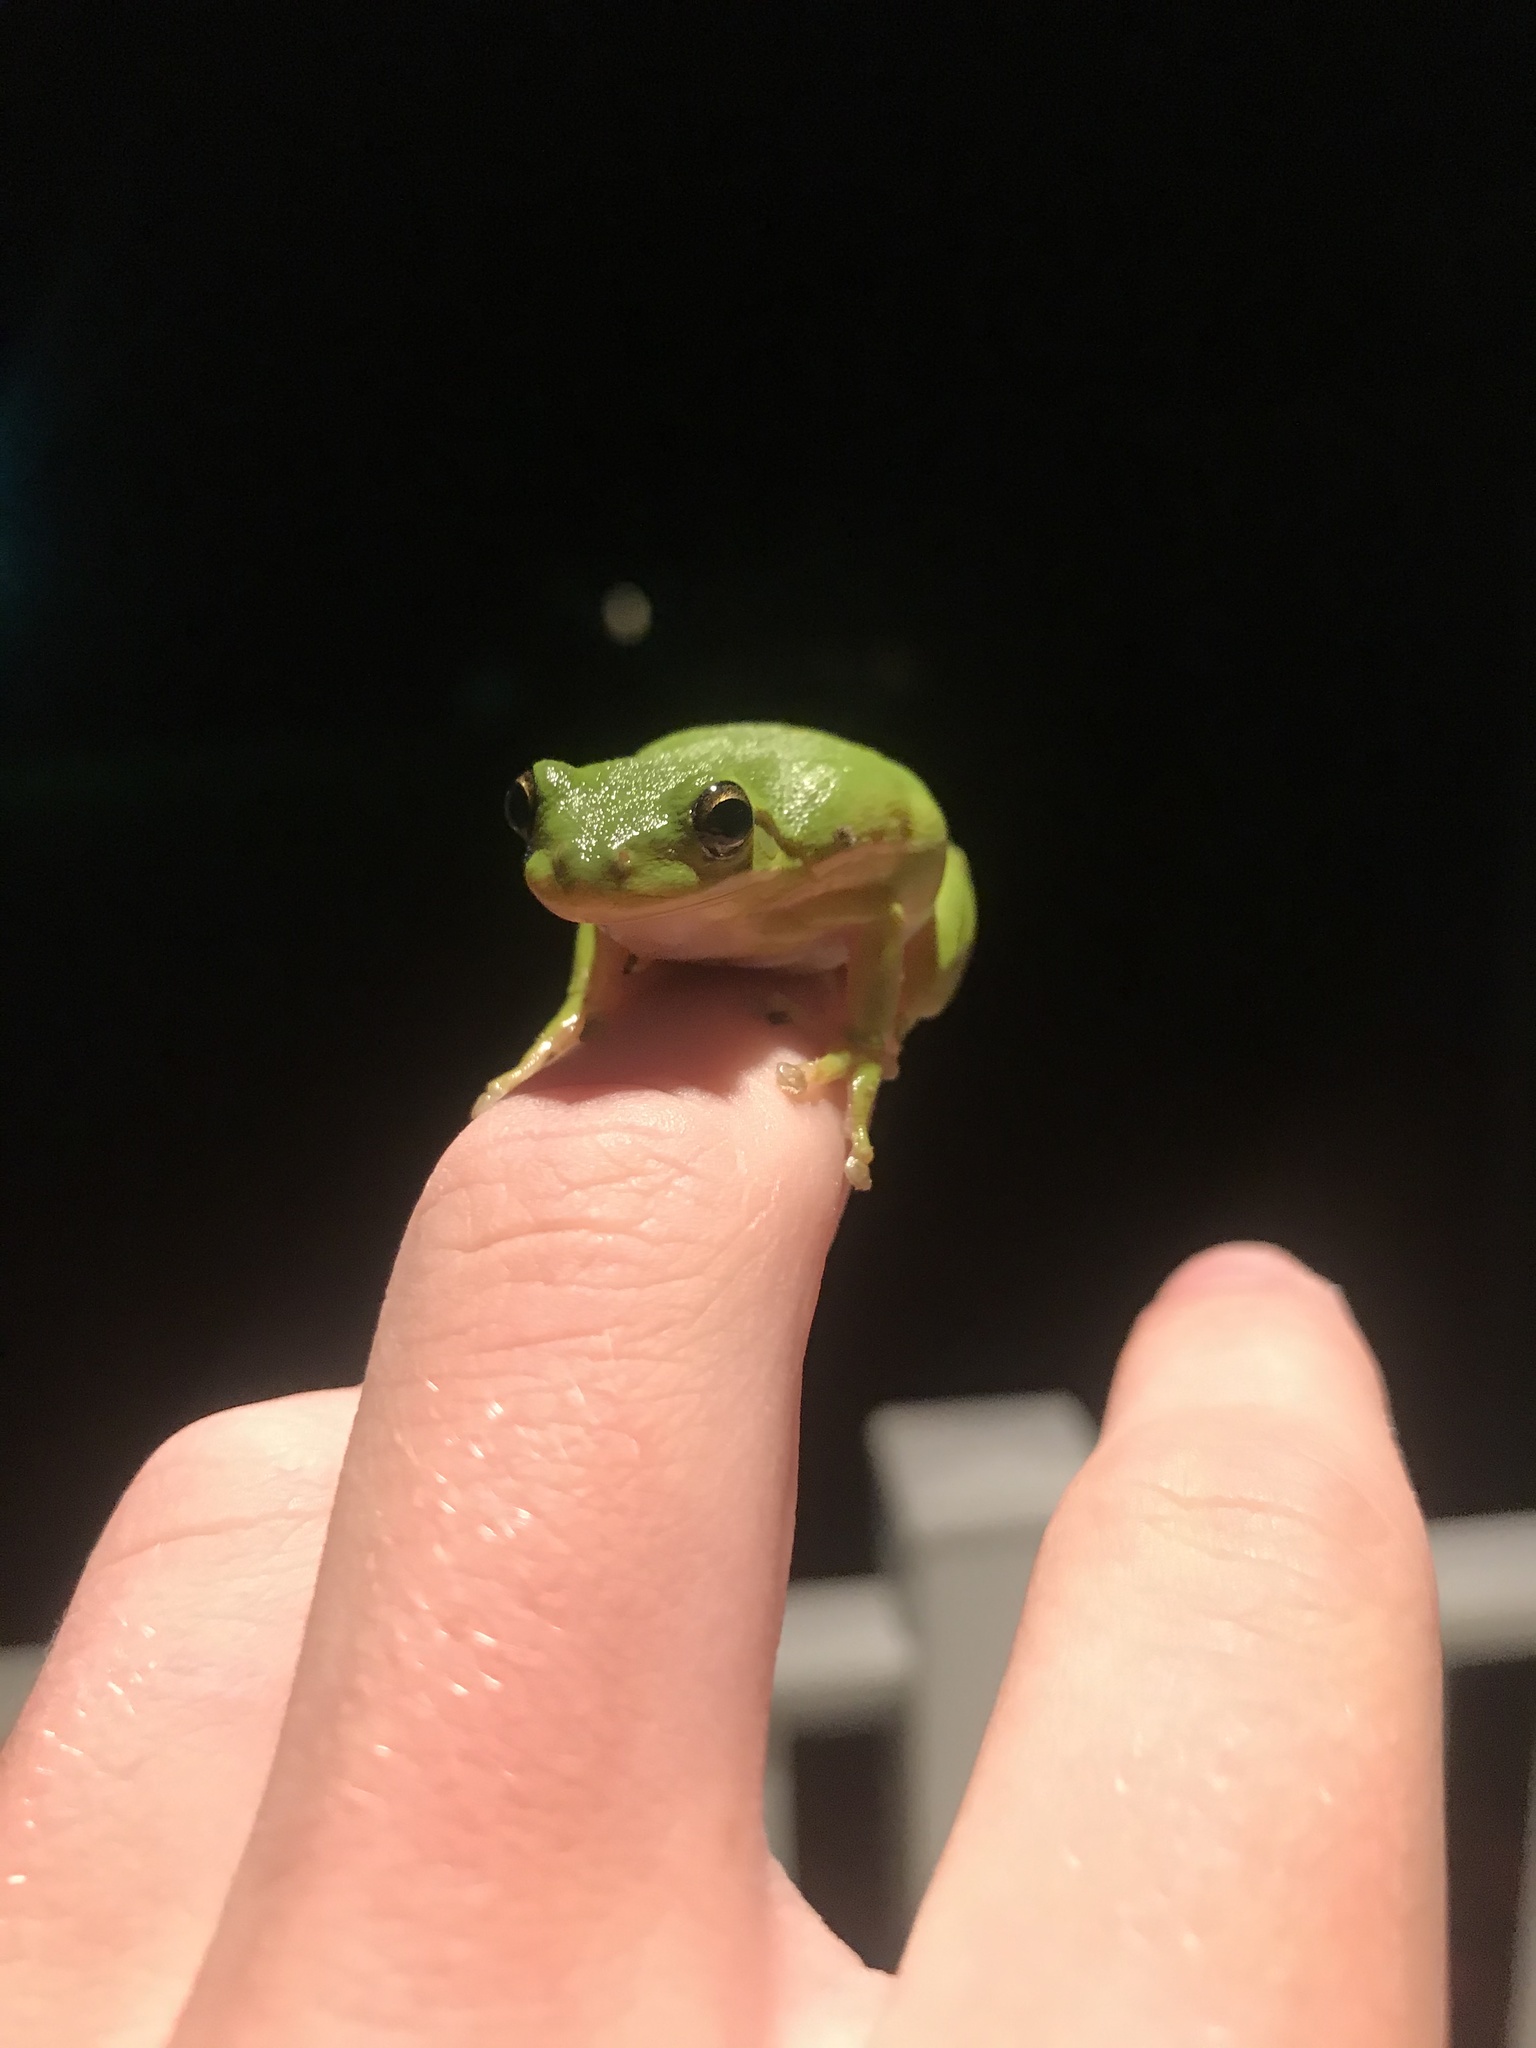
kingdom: Animalia
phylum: Chordata
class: Amphibia
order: Anura
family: Hylidae
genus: Dryophytes
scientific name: Dryophytes cinereus
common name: Green treefrog
